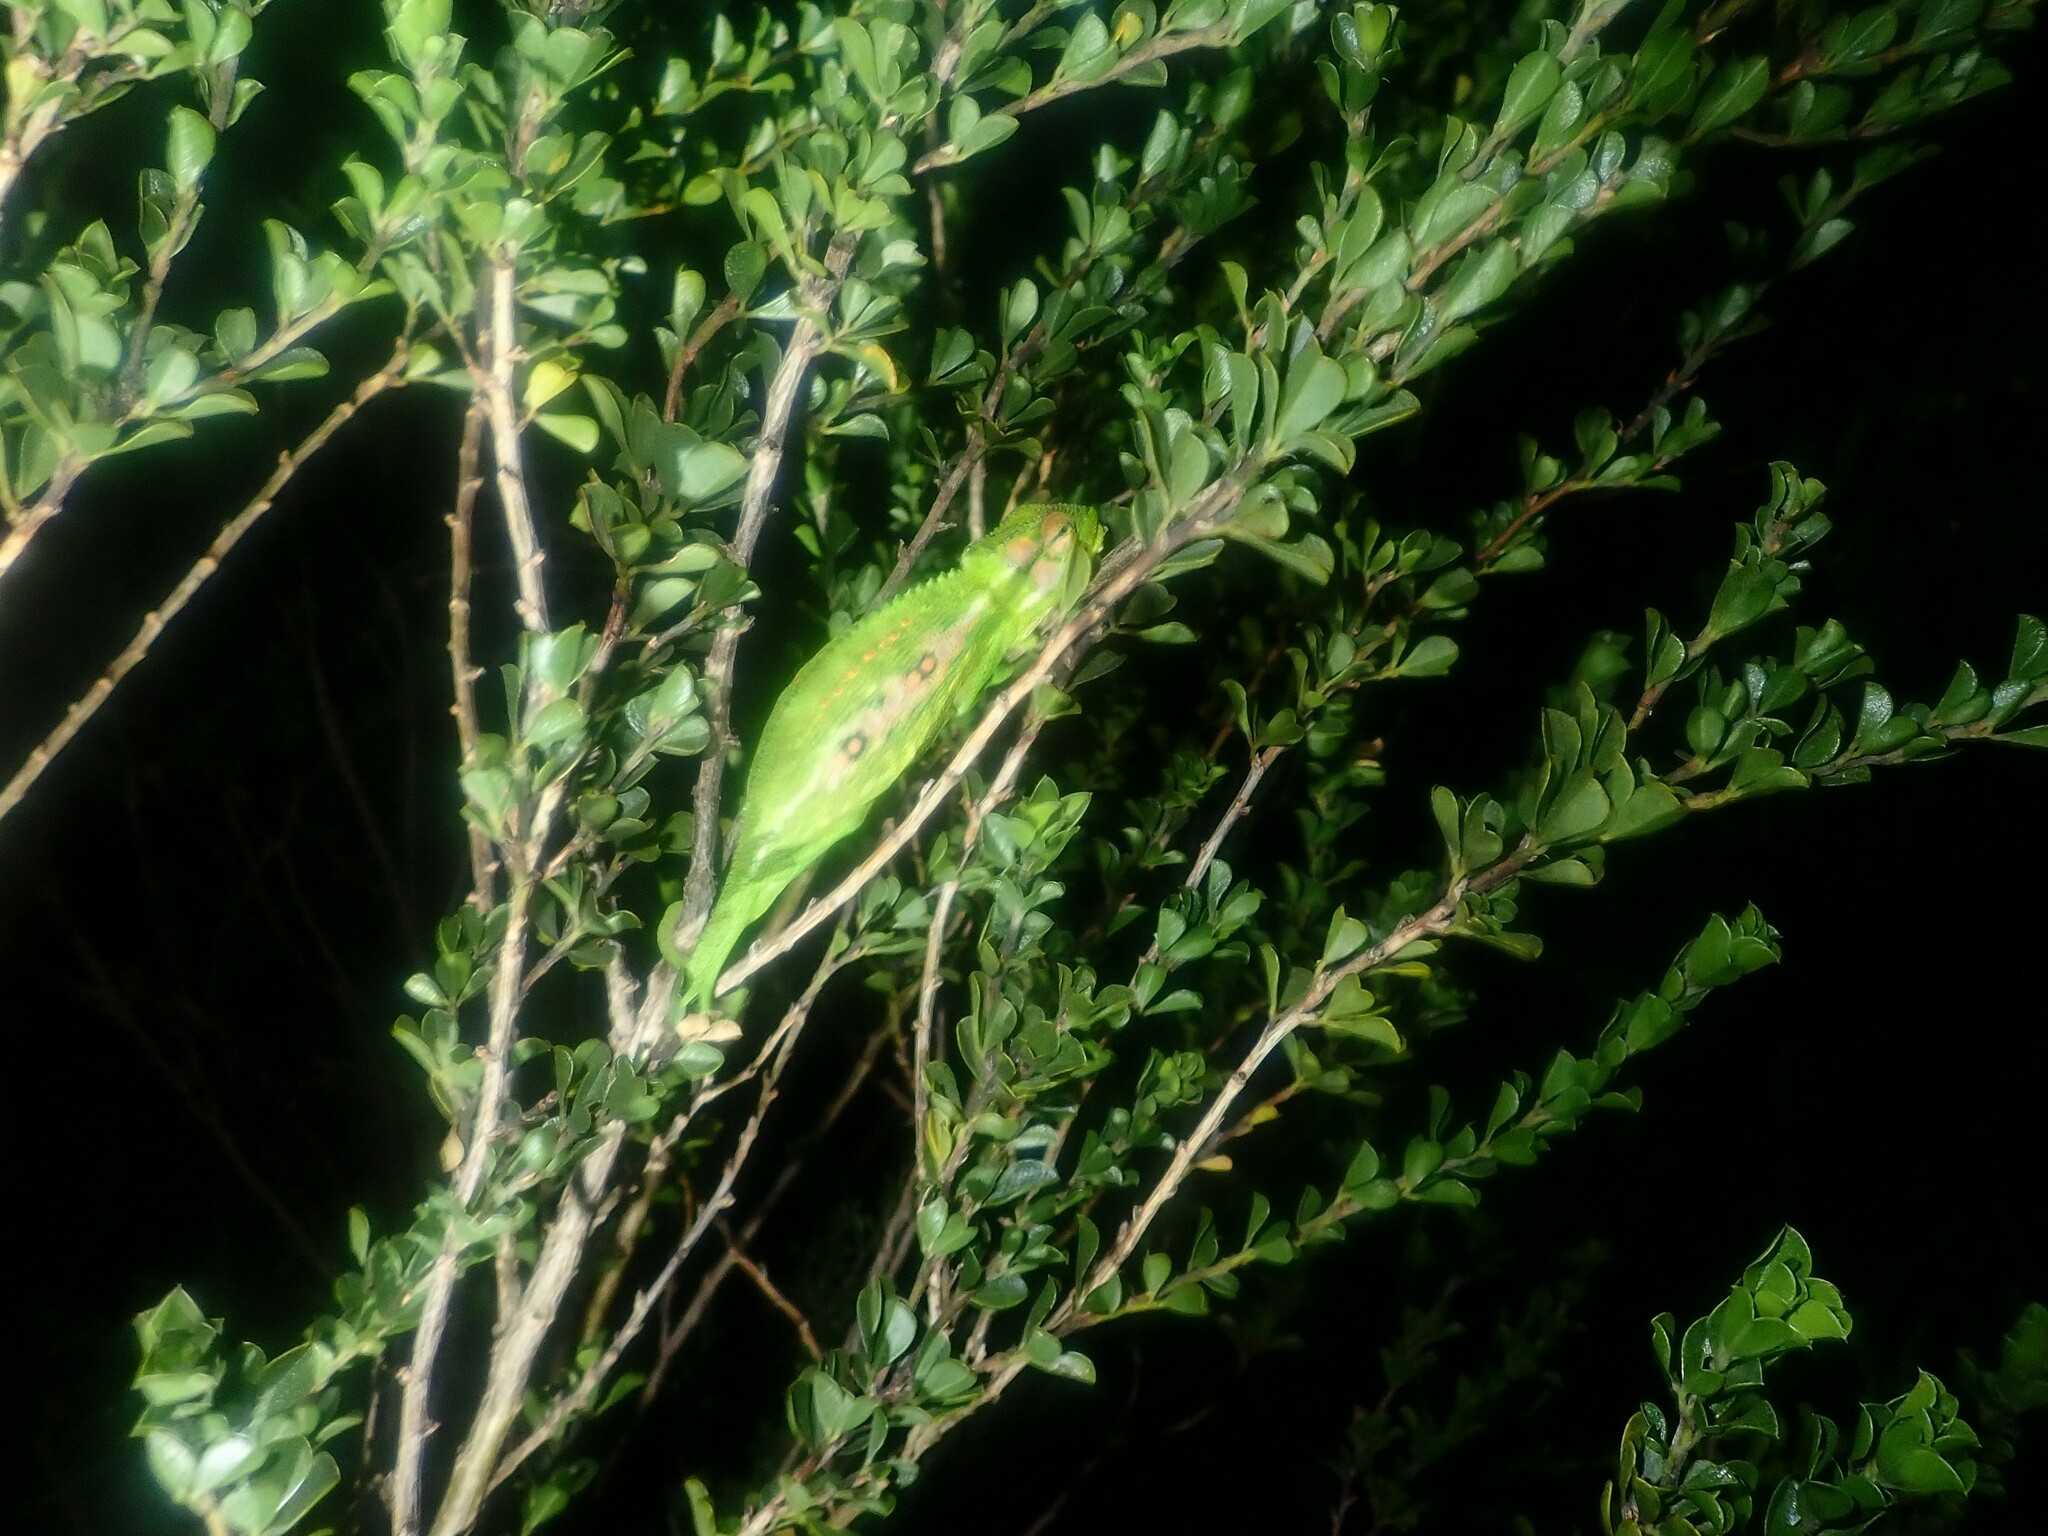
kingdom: Animalia
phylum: Chordata
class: Squamata
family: Chamaeleonidae
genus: Bradypodion
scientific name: Bradypodion pumilum
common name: Cape dwarf chameleon
